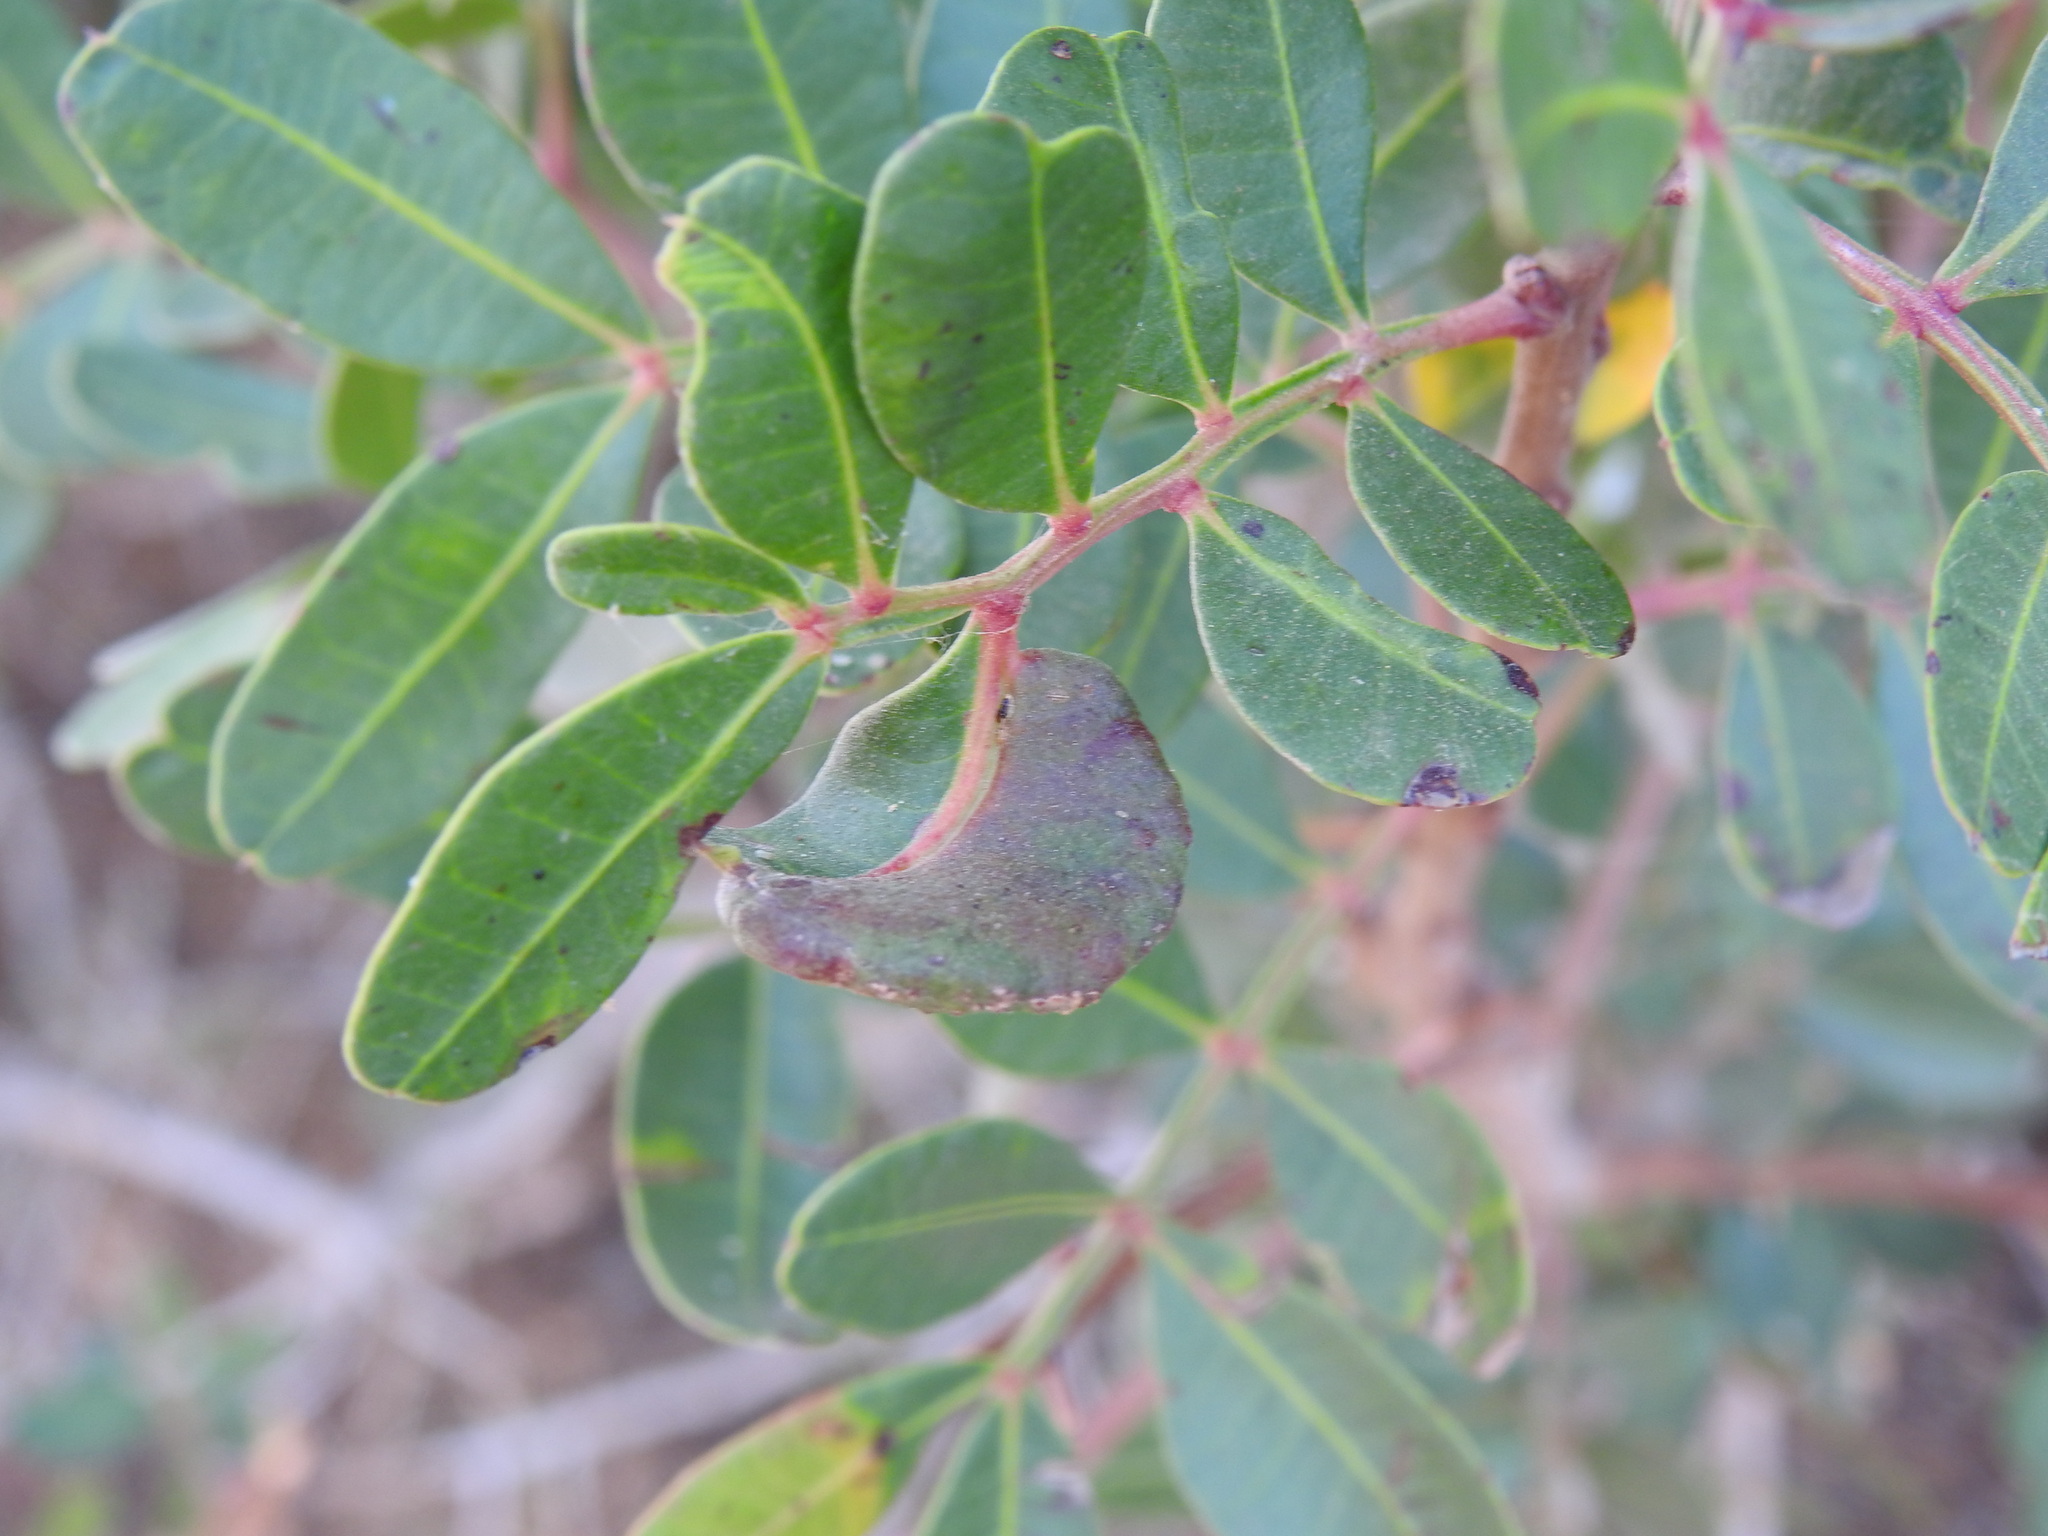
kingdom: Animalia
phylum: Arthropoda
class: Insecta
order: Hemiptera
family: Aphididae
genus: Aploneura
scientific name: Aploneura lentisci
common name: Mealy grass root aphid
